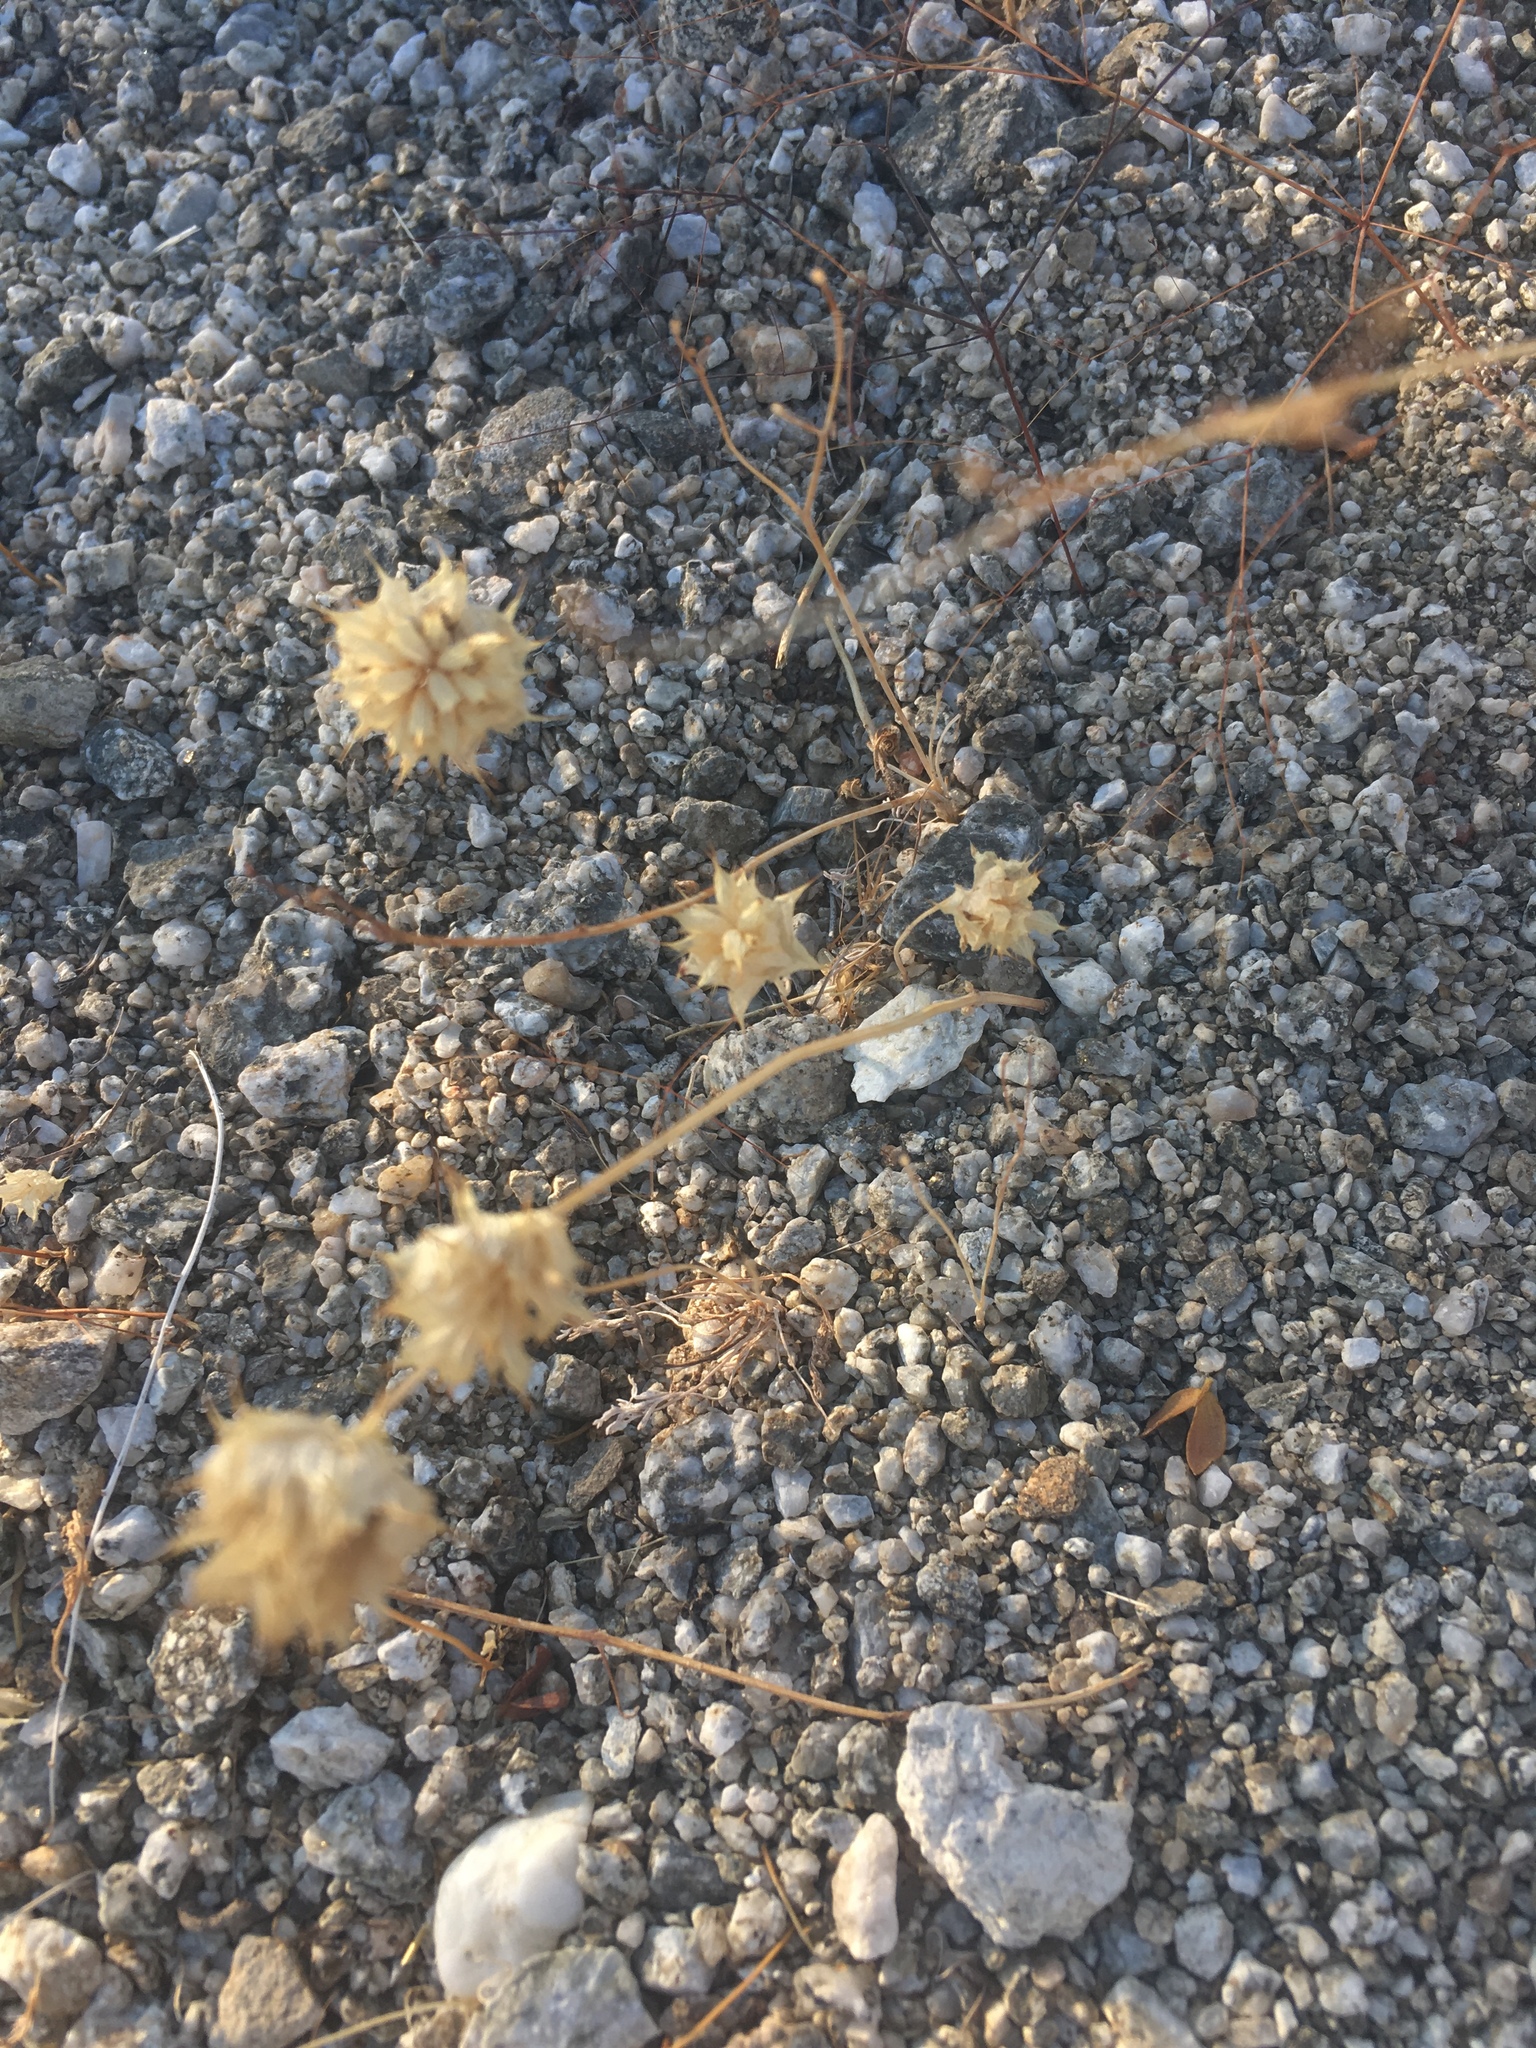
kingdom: Plantae
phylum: Tracheophyta
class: Magnoliopsida
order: Lamiales
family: Lamiaceae
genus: Salvia
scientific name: Salvia columbariae
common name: Chia
